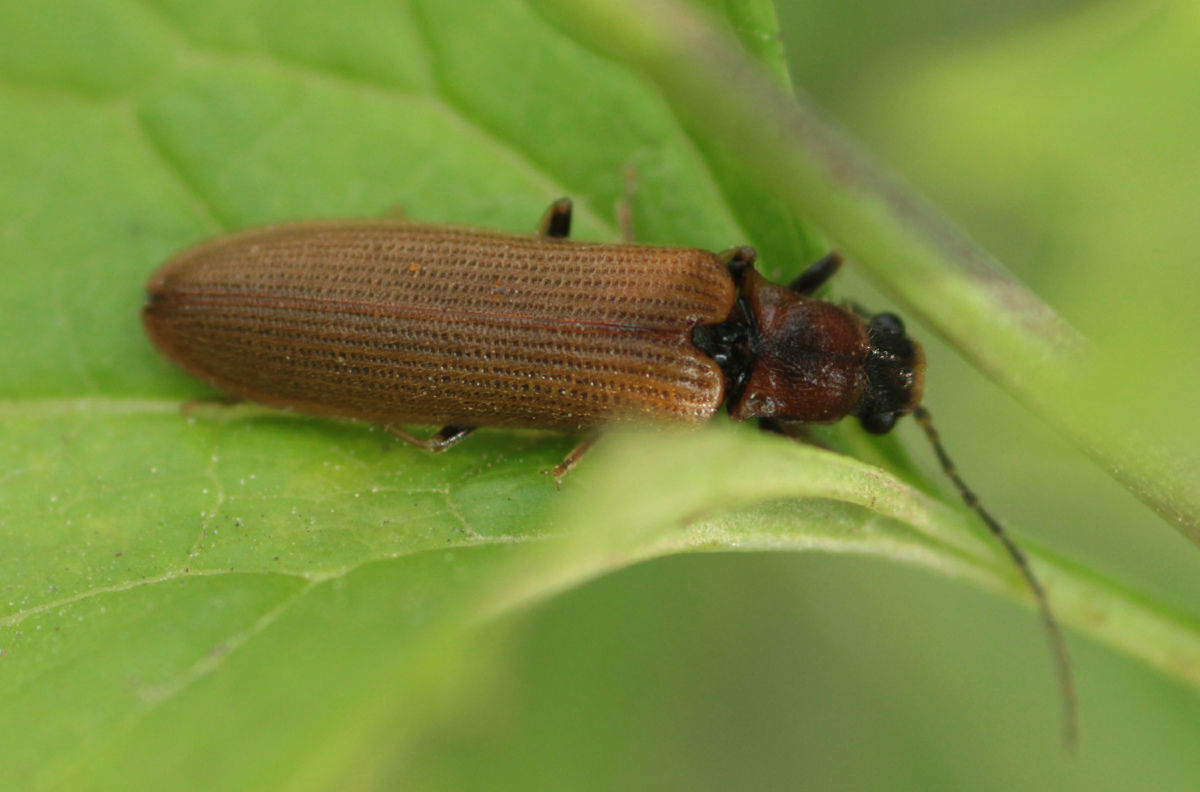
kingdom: Animalia
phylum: Arthropoda
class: Insecta
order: Coleoptera
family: Elateridae
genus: Denticollis
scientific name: Denticollis linearis
